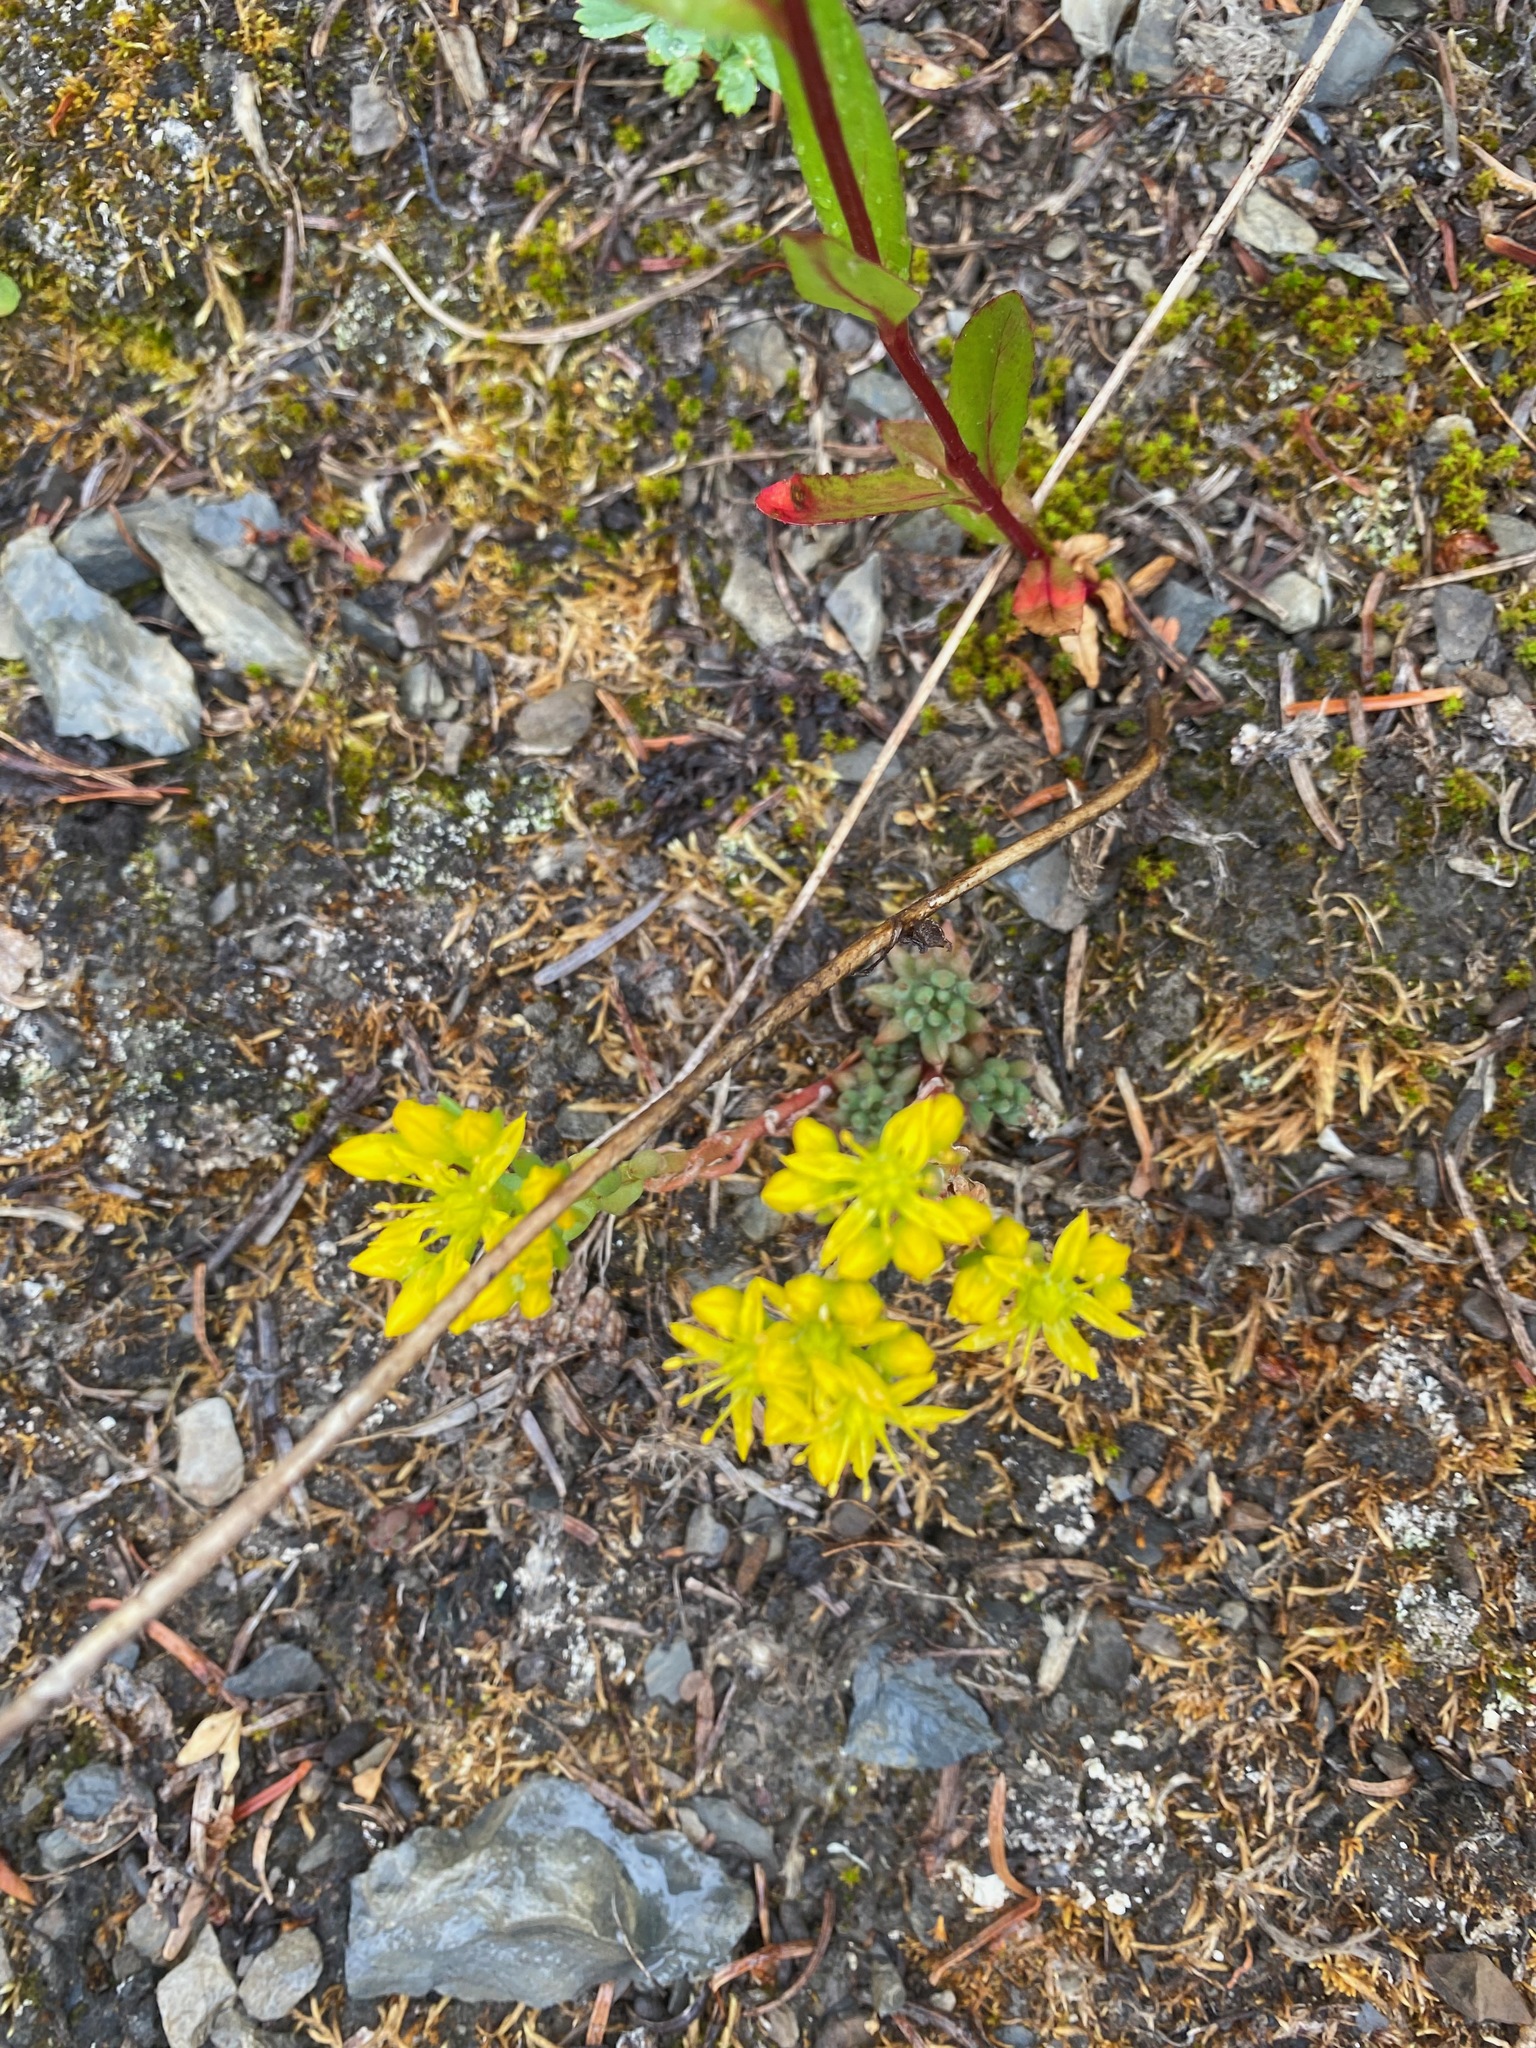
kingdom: Plantae
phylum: Tracheophyta
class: Magnoliopsida
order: Saxifragales
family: Crassulaceae
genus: Sedum
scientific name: Sedum lanceolatum
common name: Common stonecrop
